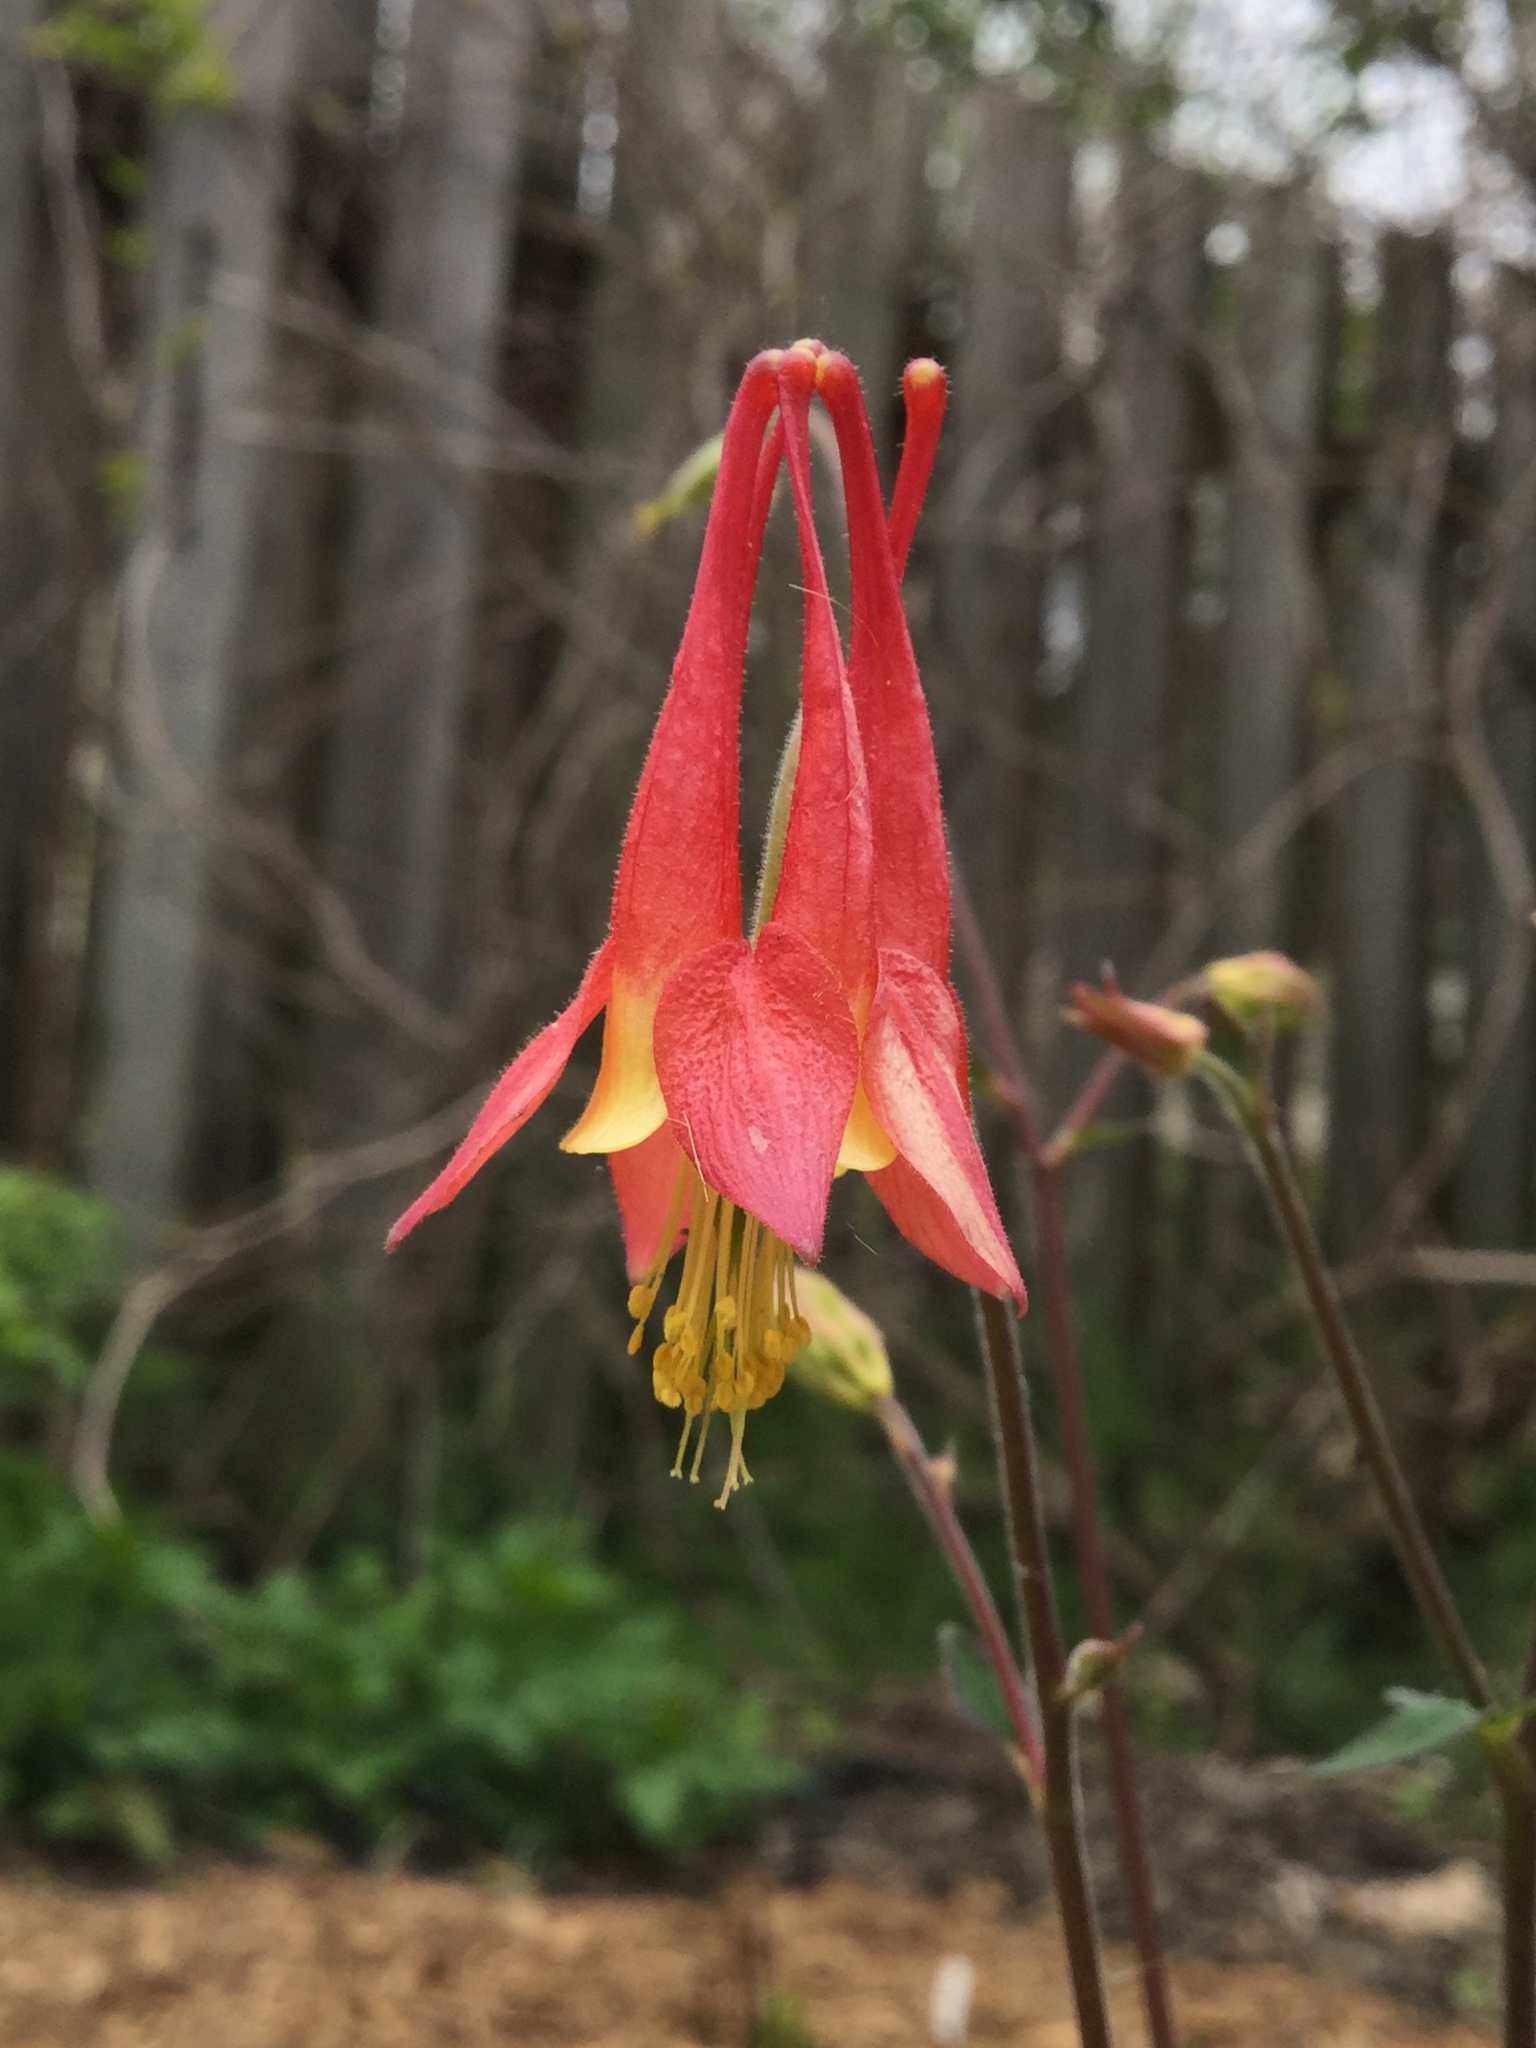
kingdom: Plantae
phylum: Tracheophyta
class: Magnoliopsida
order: Ranunculales
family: Ranunculaceae
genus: Aquilegia
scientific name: Aquilegia canadensis
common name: American columbine
